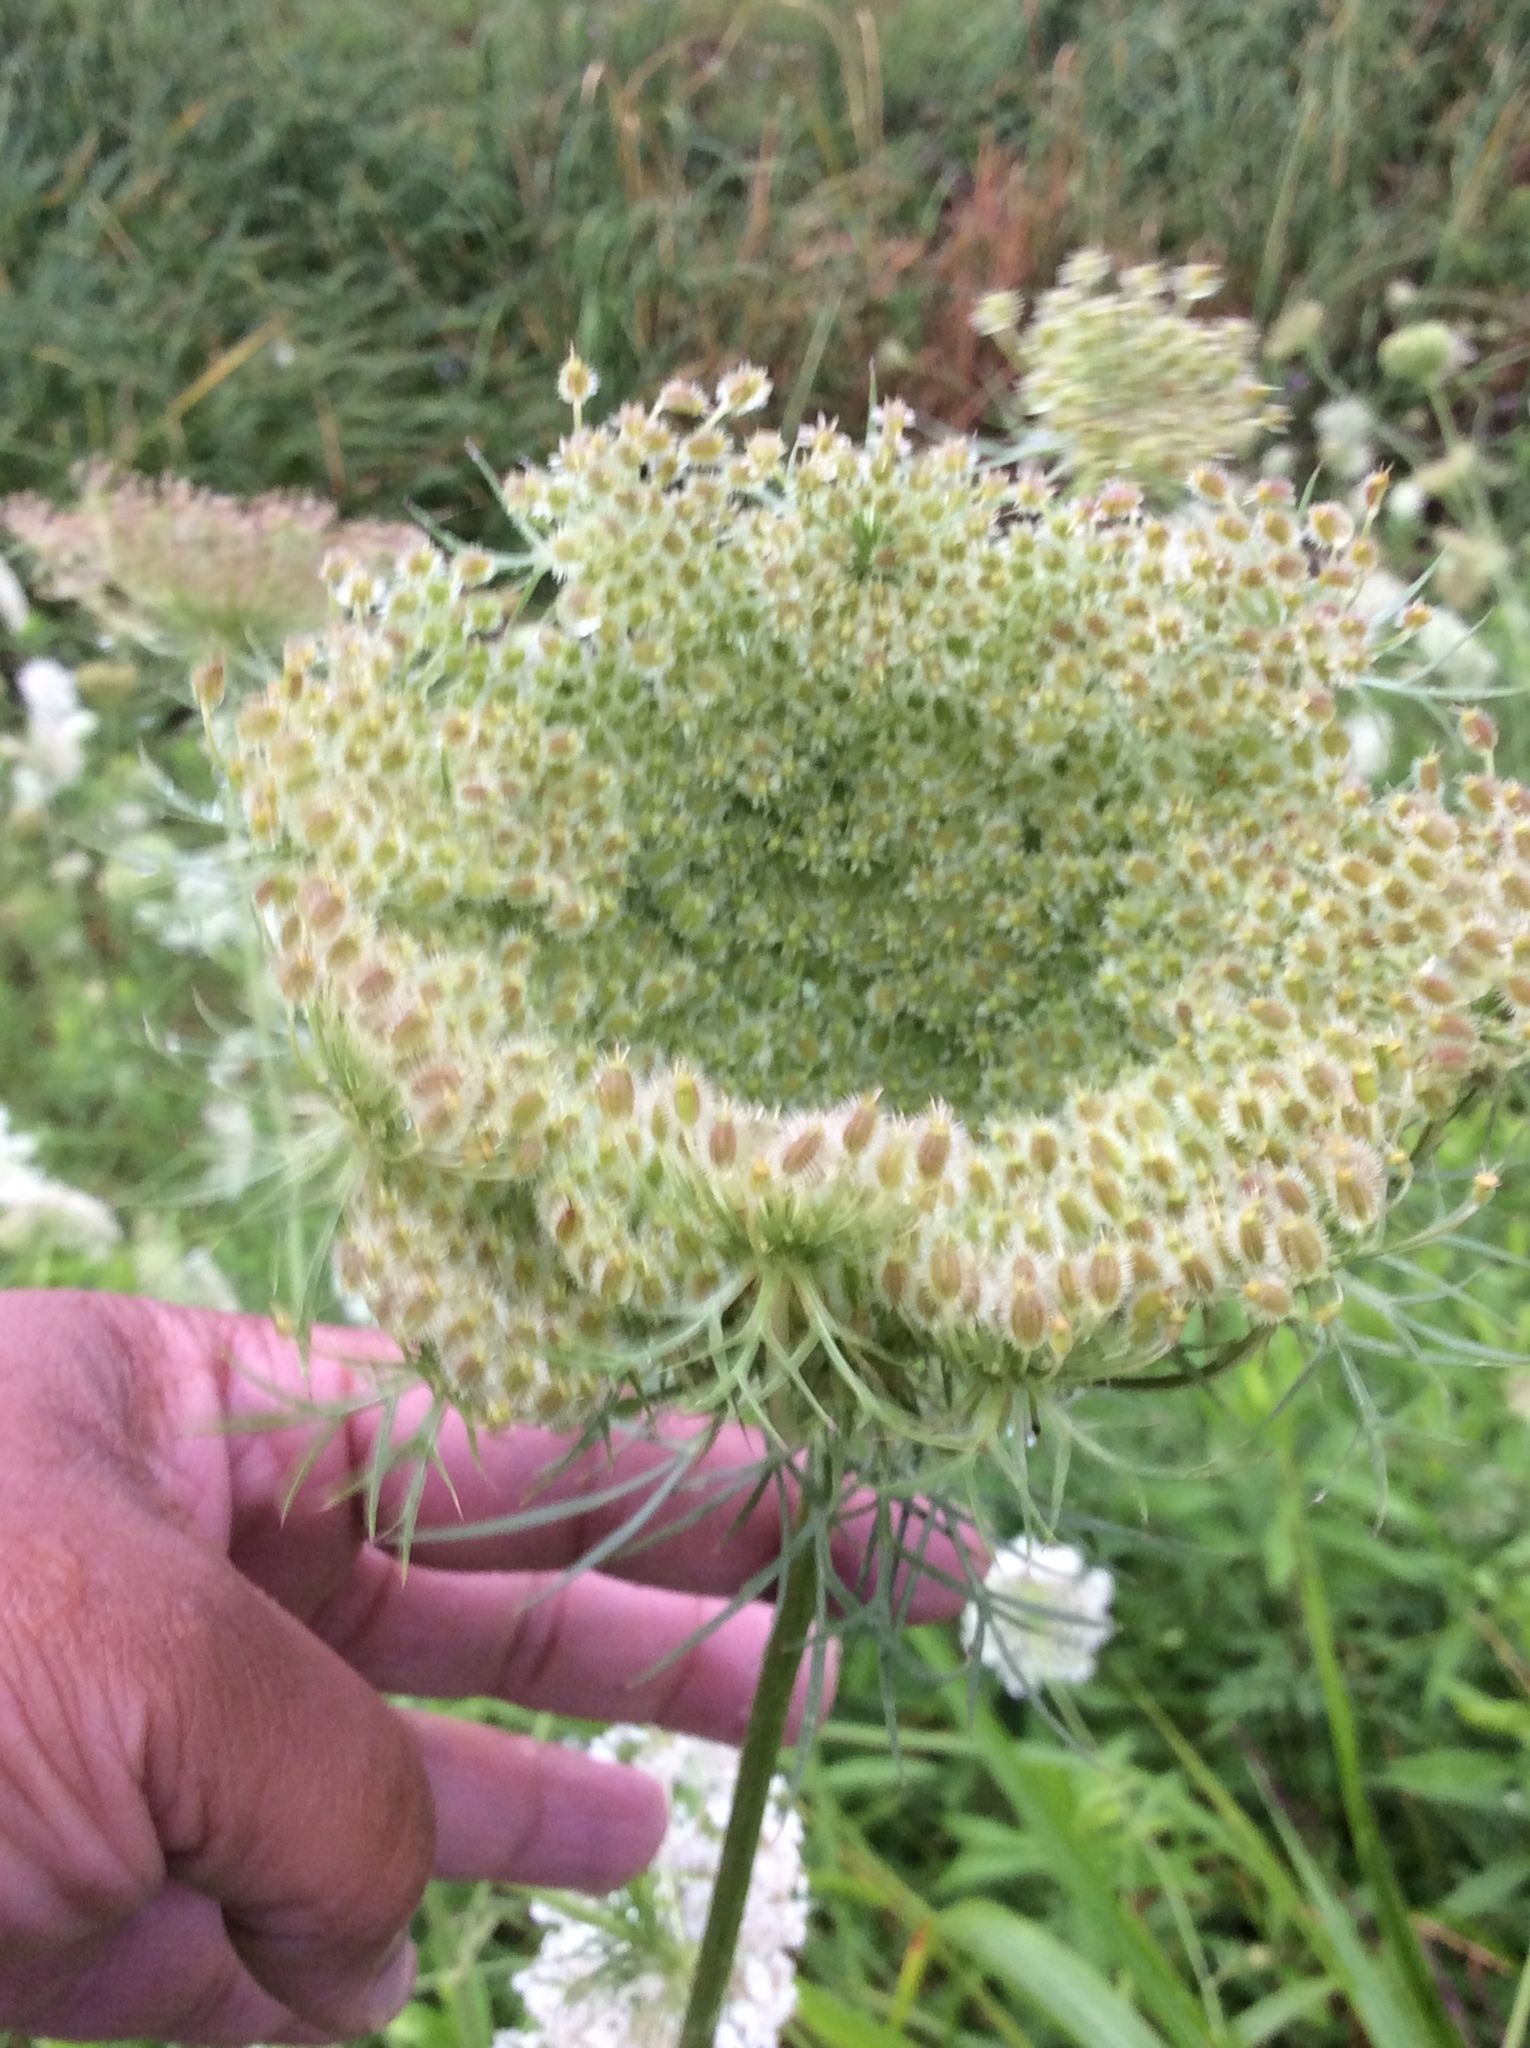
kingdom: Plantae
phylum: Tracheophyta
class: Magnoliopsida
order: Apiales
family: Apiaceae
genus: Daucus
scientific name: Daucus carota
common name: Wild carrot
